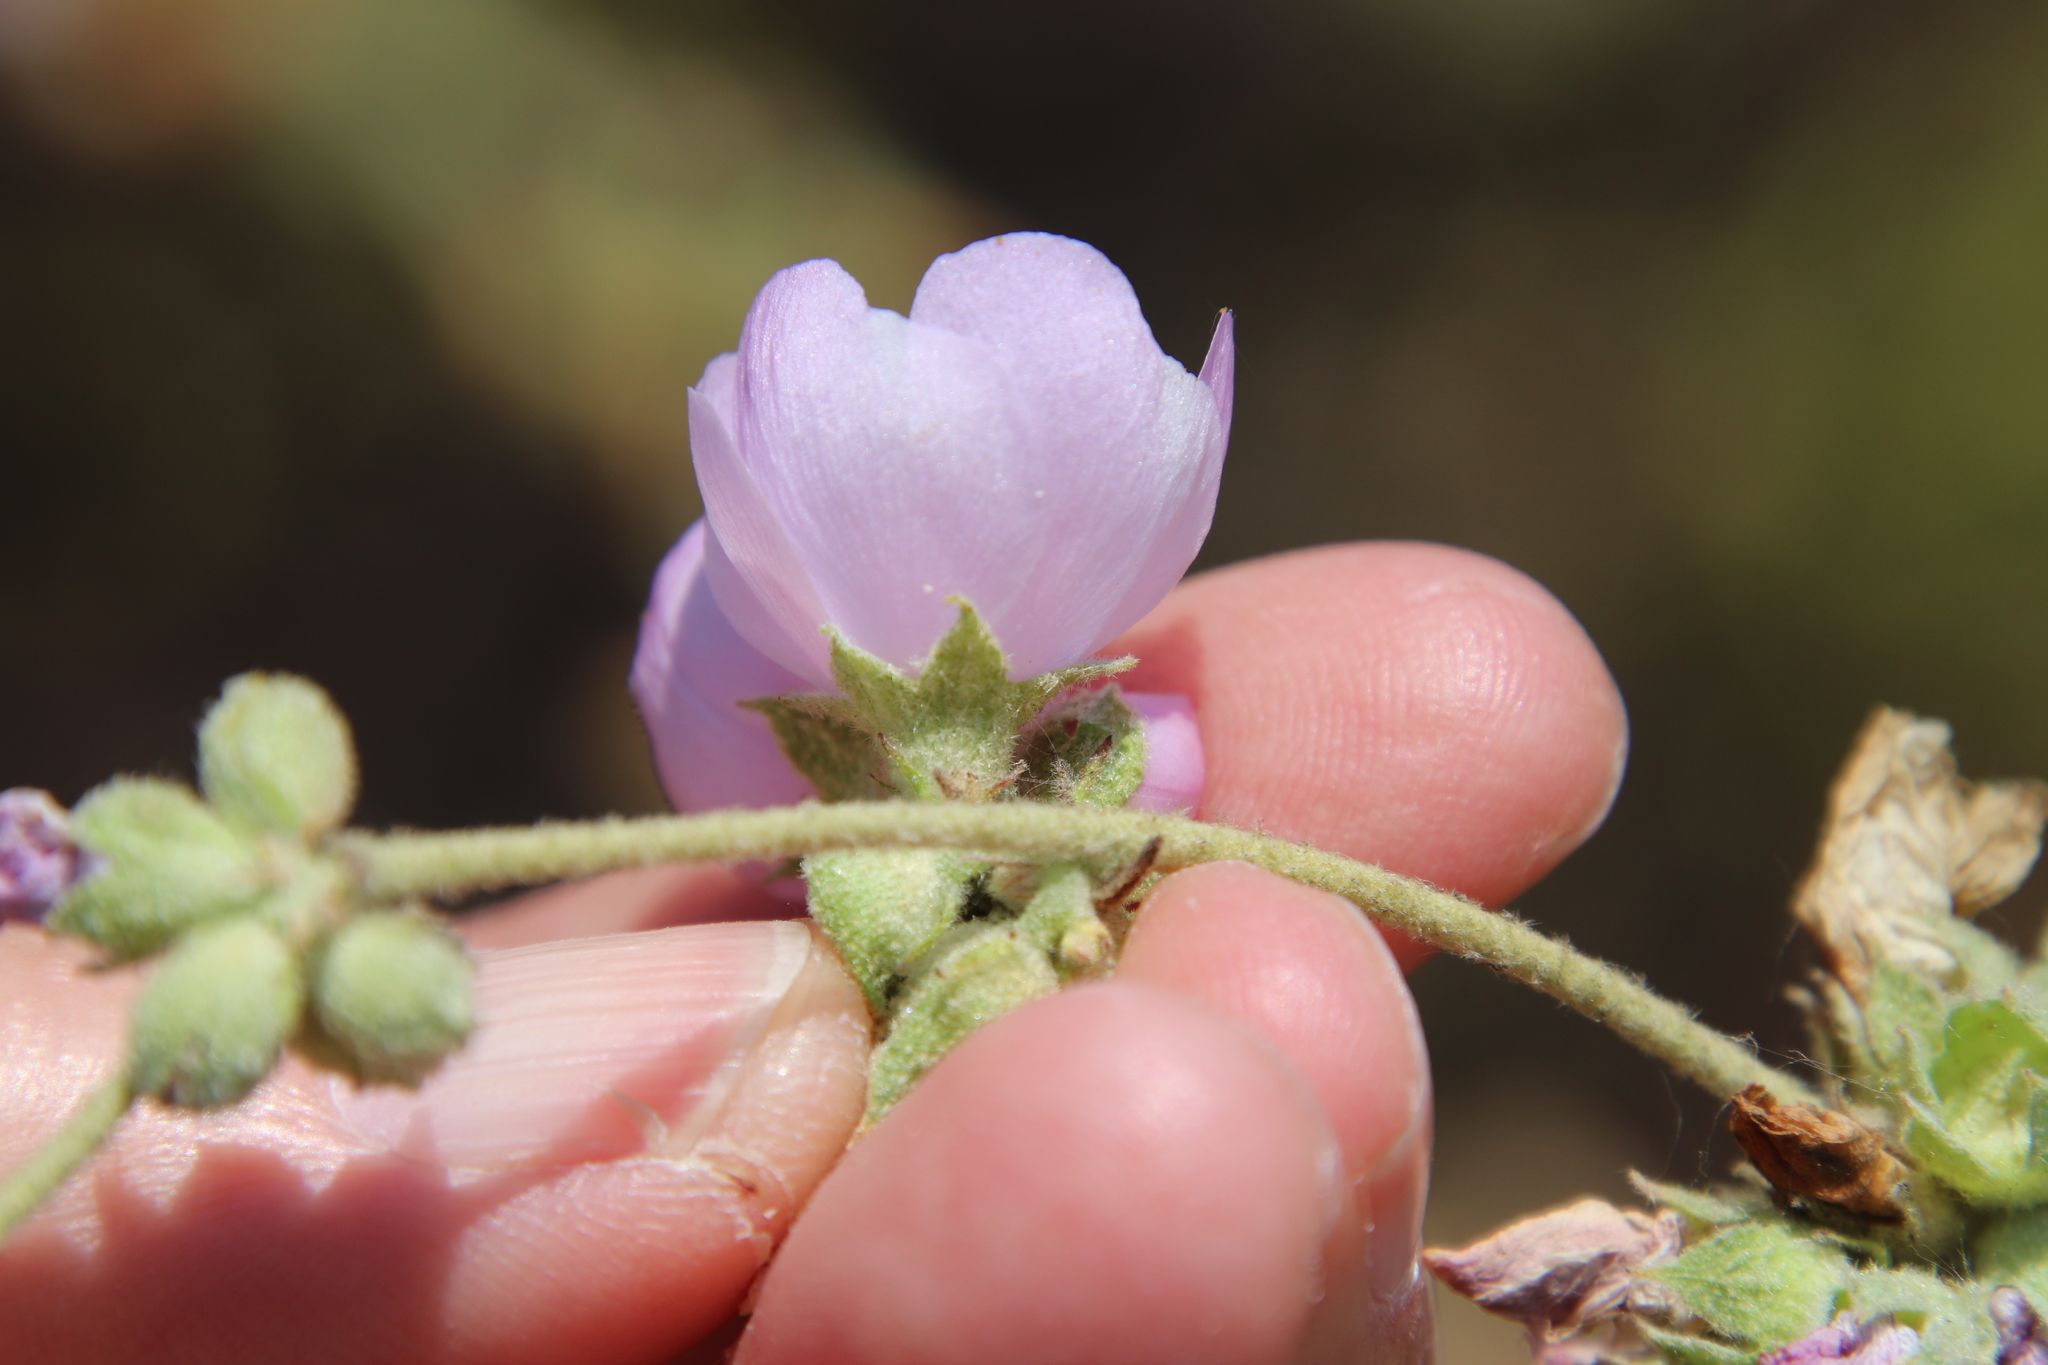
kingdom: Plantae
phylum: Tracheophyta
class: Magnoliopsida
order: Malvales
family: Malvaceae
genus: Malacothamnus
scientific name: Malacothamnus fasciculatus
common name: Sant cruz island bush-mallow
